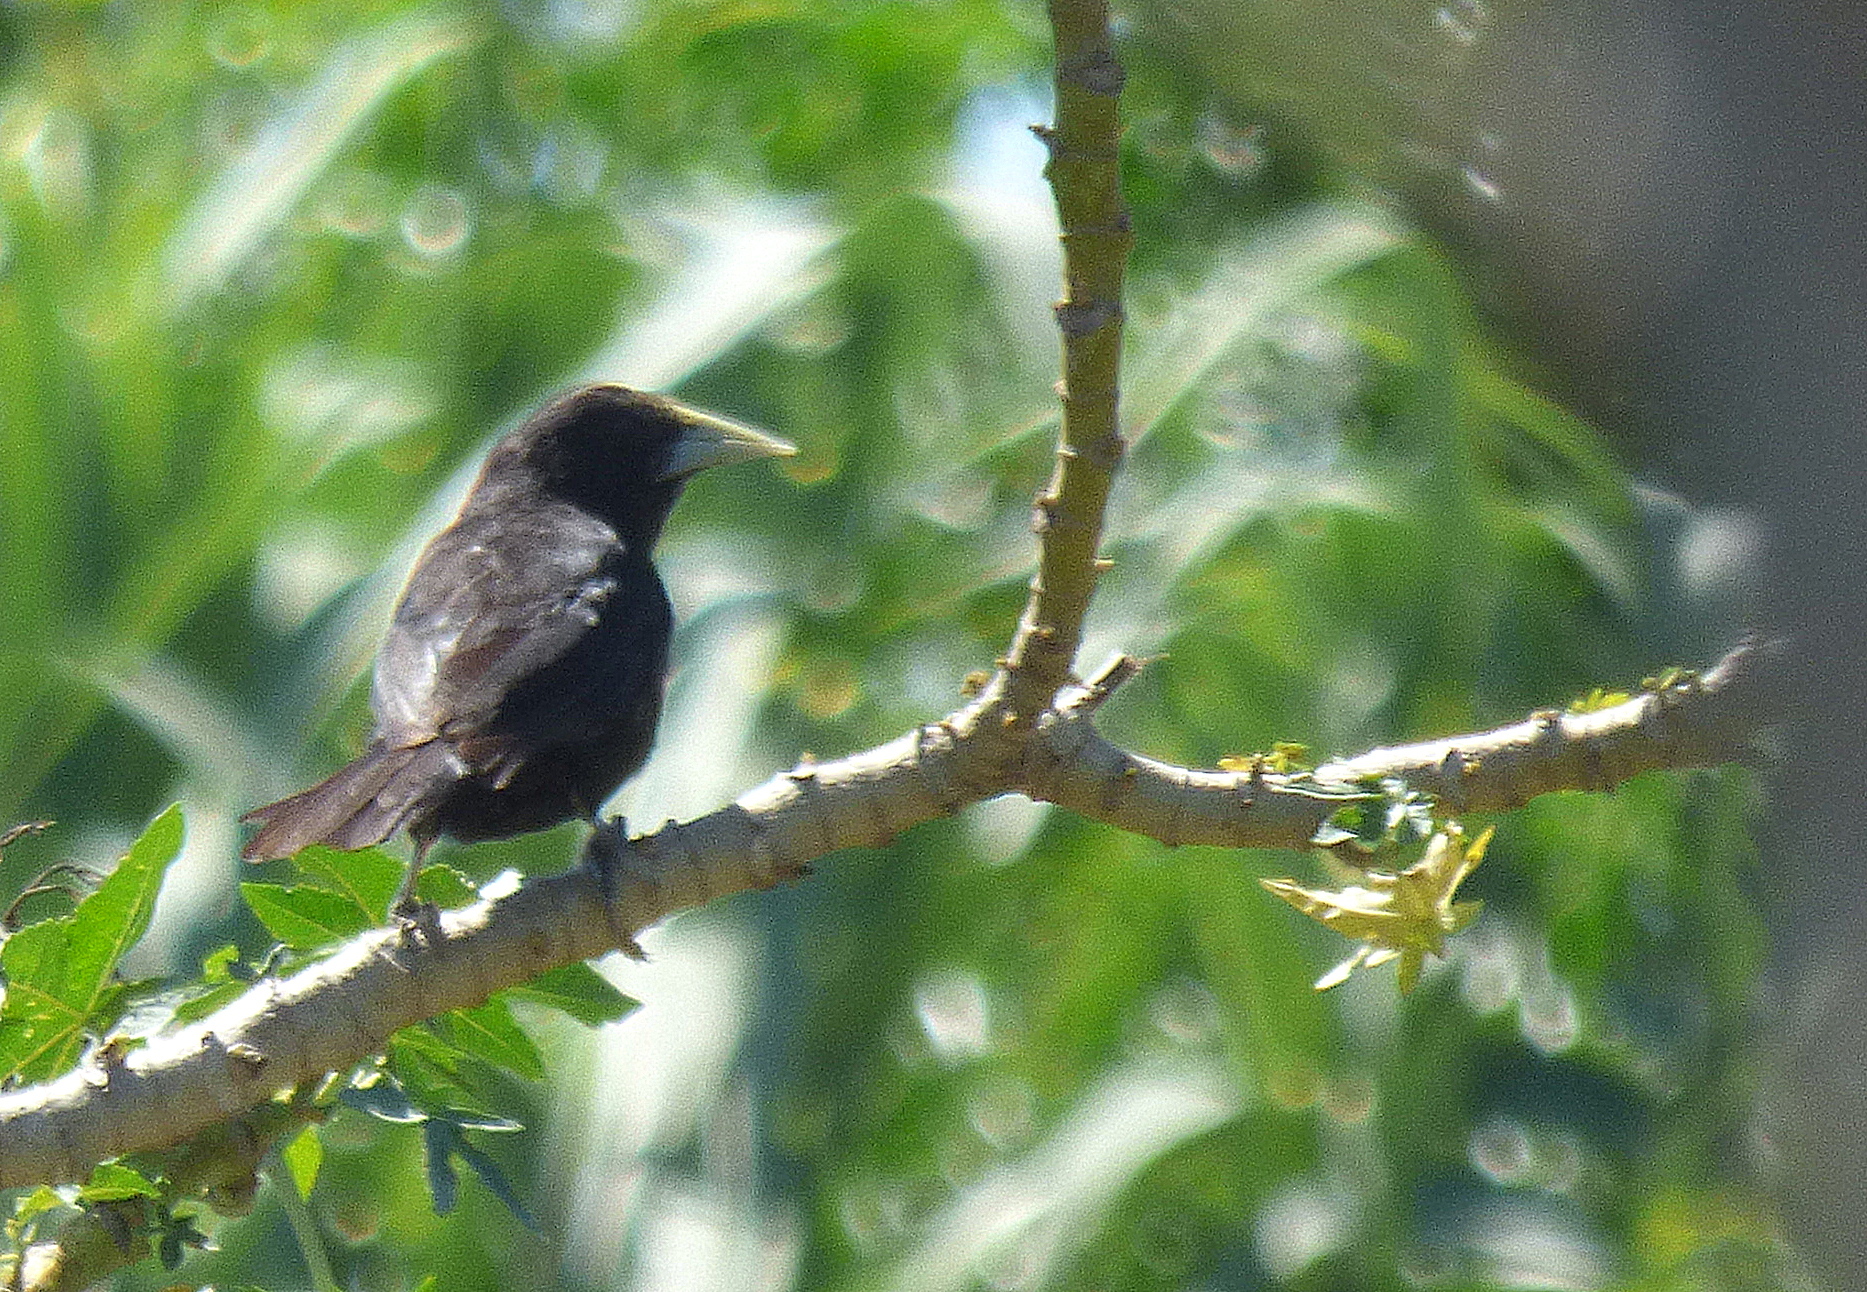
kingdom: Animalia
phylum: Chordata
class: Aves
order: Passeriformes
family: Icteridae
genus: Cacicus
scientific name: Cacicus solitarius
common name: Solitary cacique
